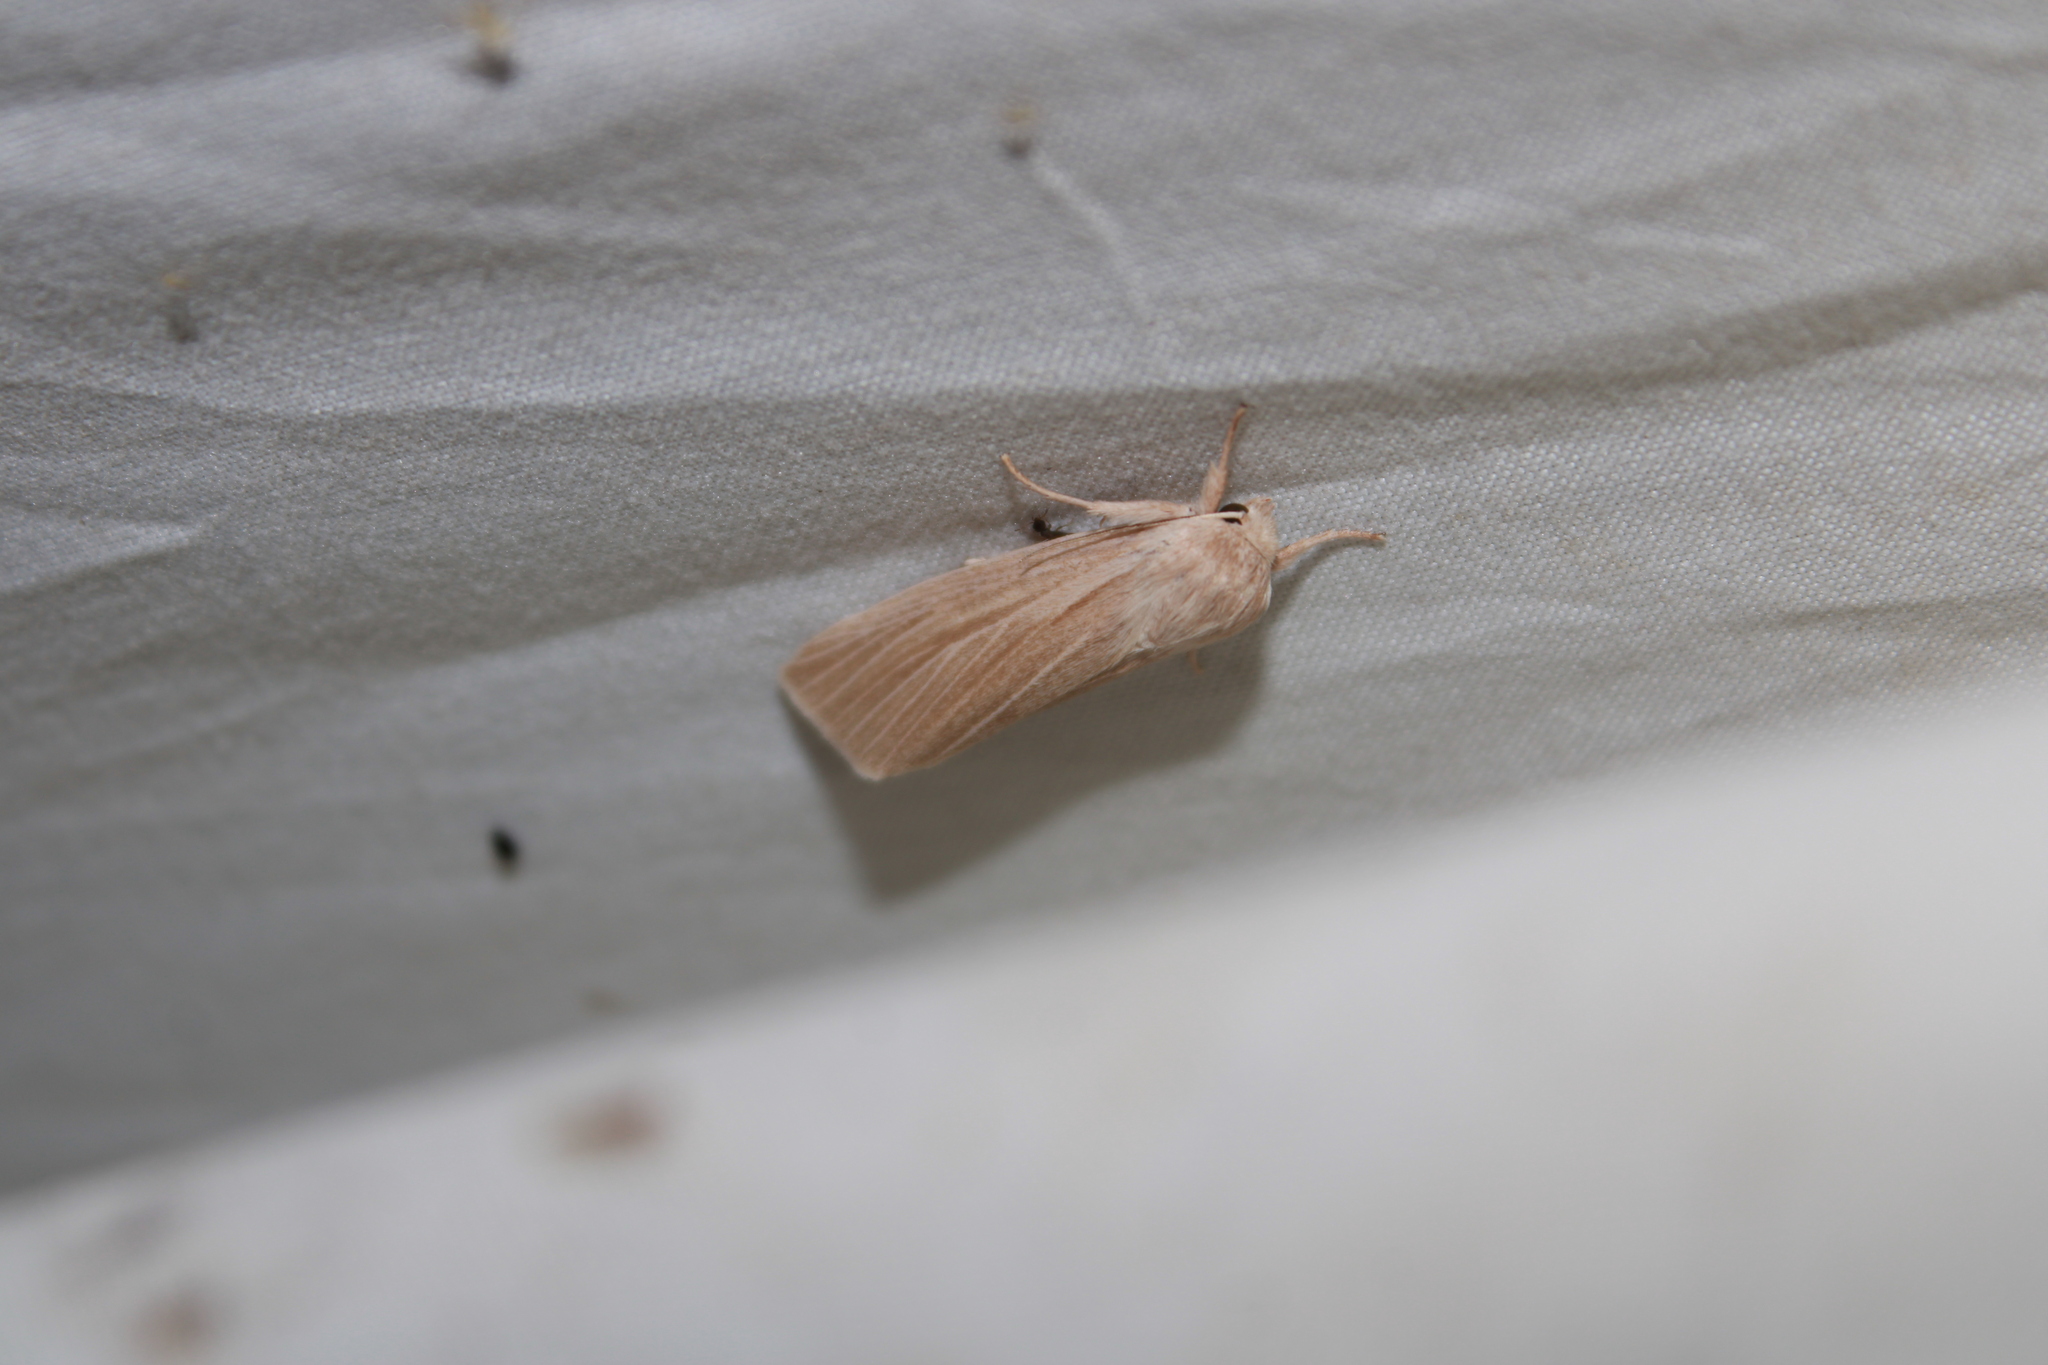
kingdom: Animalia
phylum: Arthropoda
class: Insecta
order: Lepidoptera
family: Noctuidae
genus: Acronicta
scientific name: Acronicta insularis
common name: Henry's marsh moth
